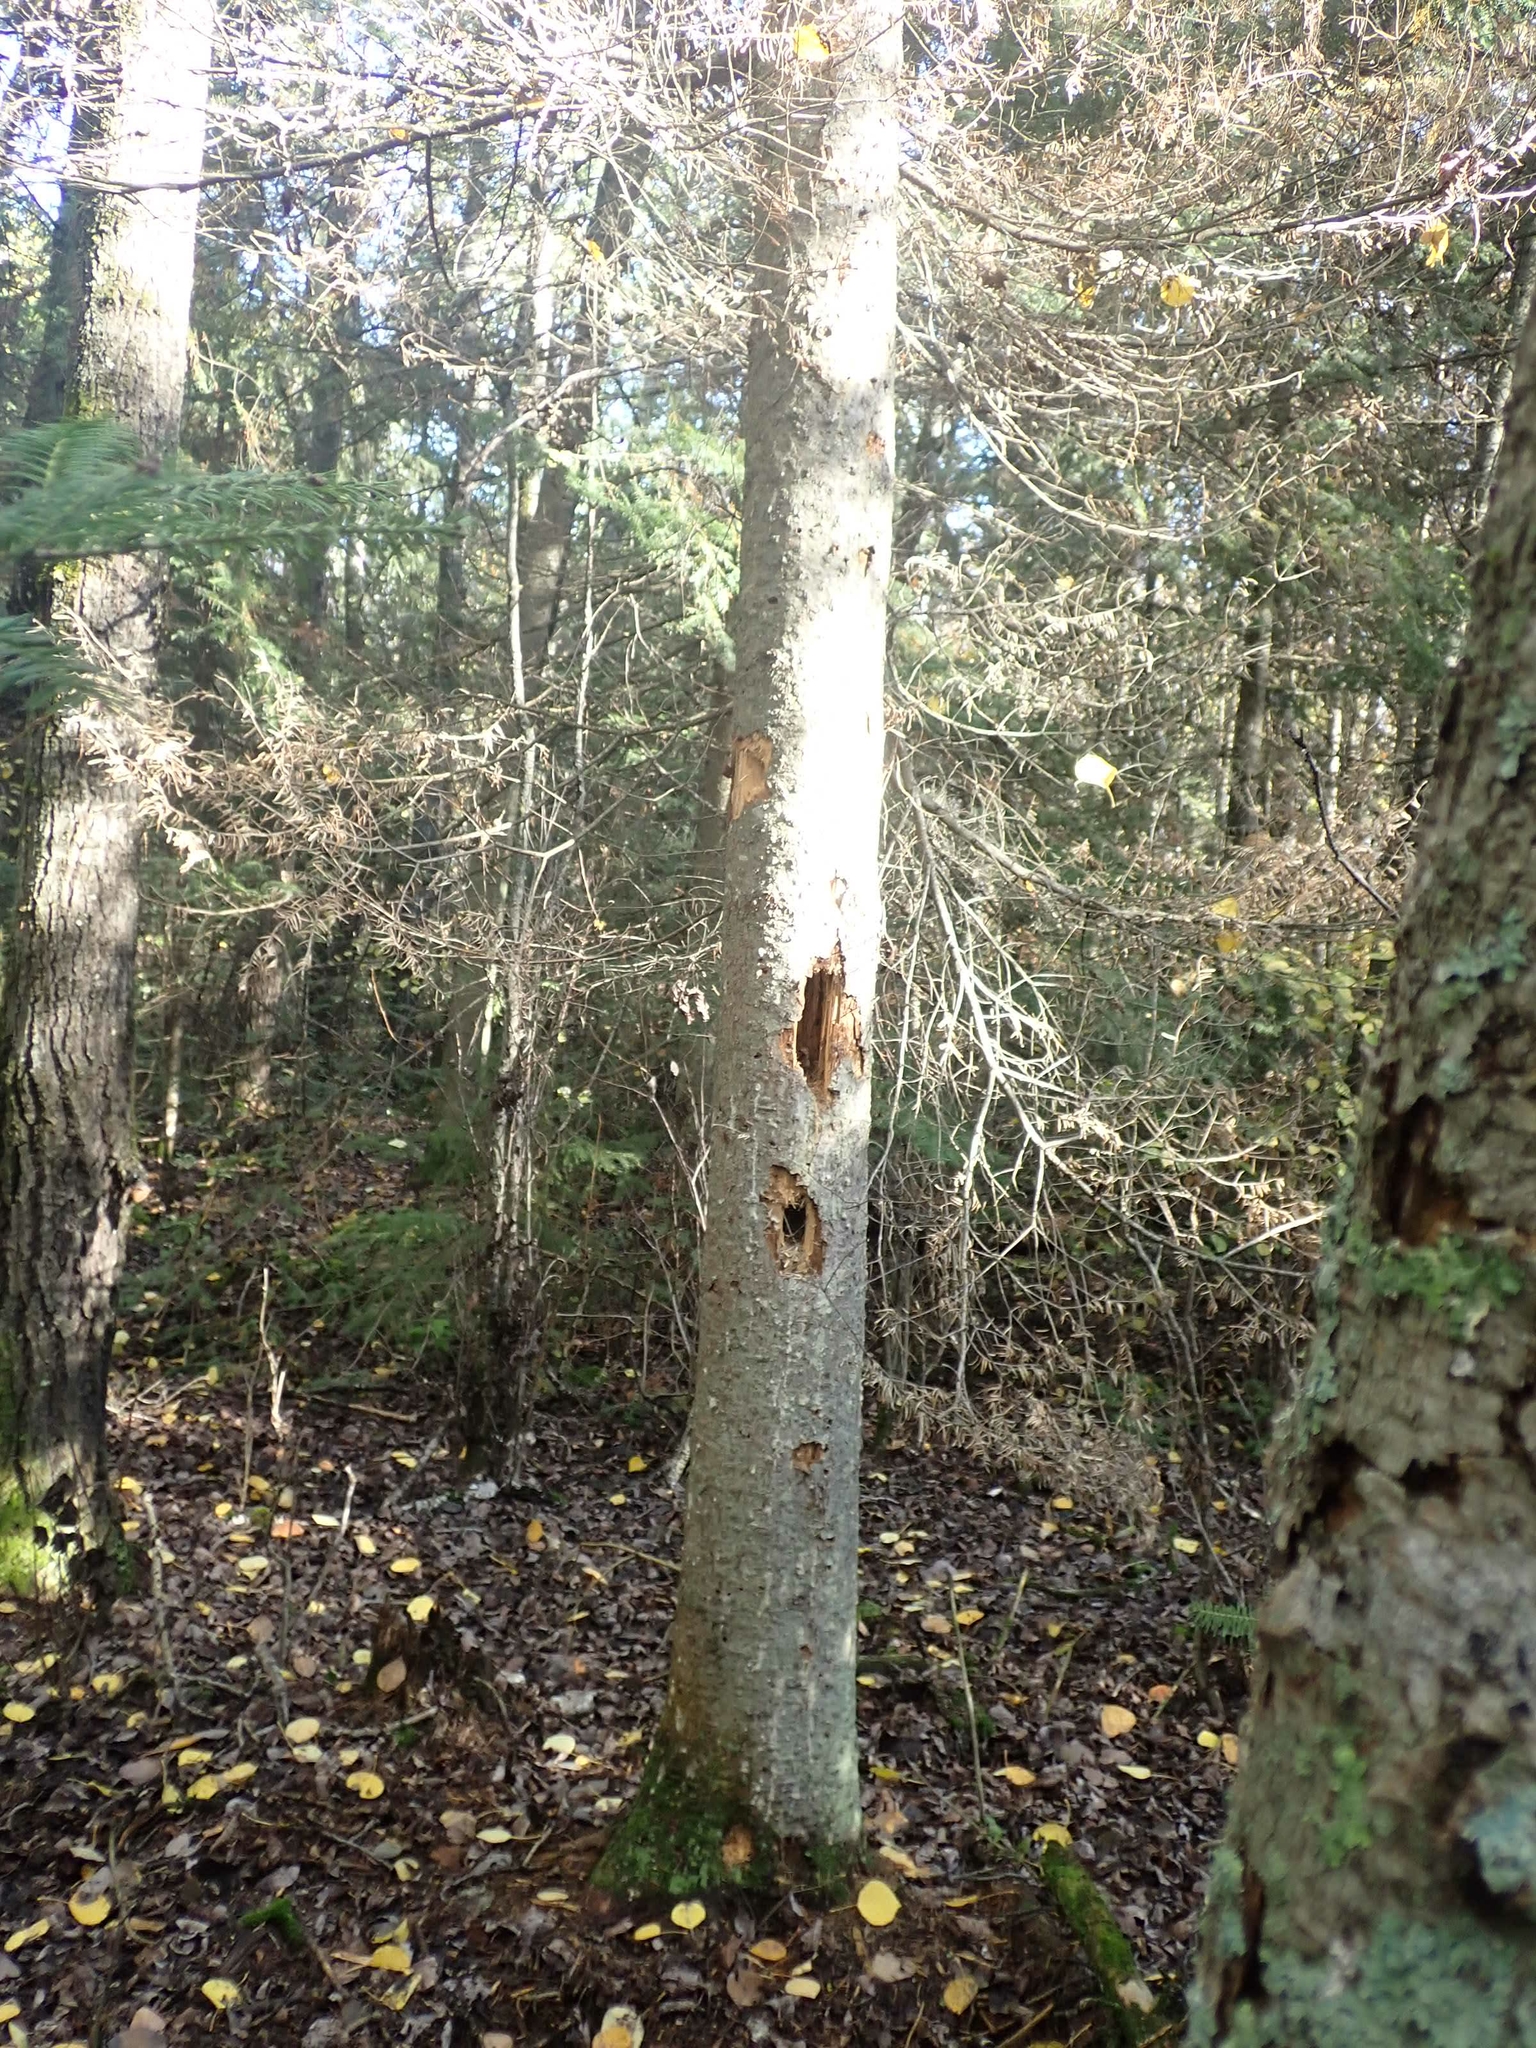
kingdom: Animalia
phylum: Chordata
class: Aves
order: Piciformes
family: Picidae
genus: Dryocopus
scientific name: Dryocopus pileatus
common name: Pileated woodpecker
